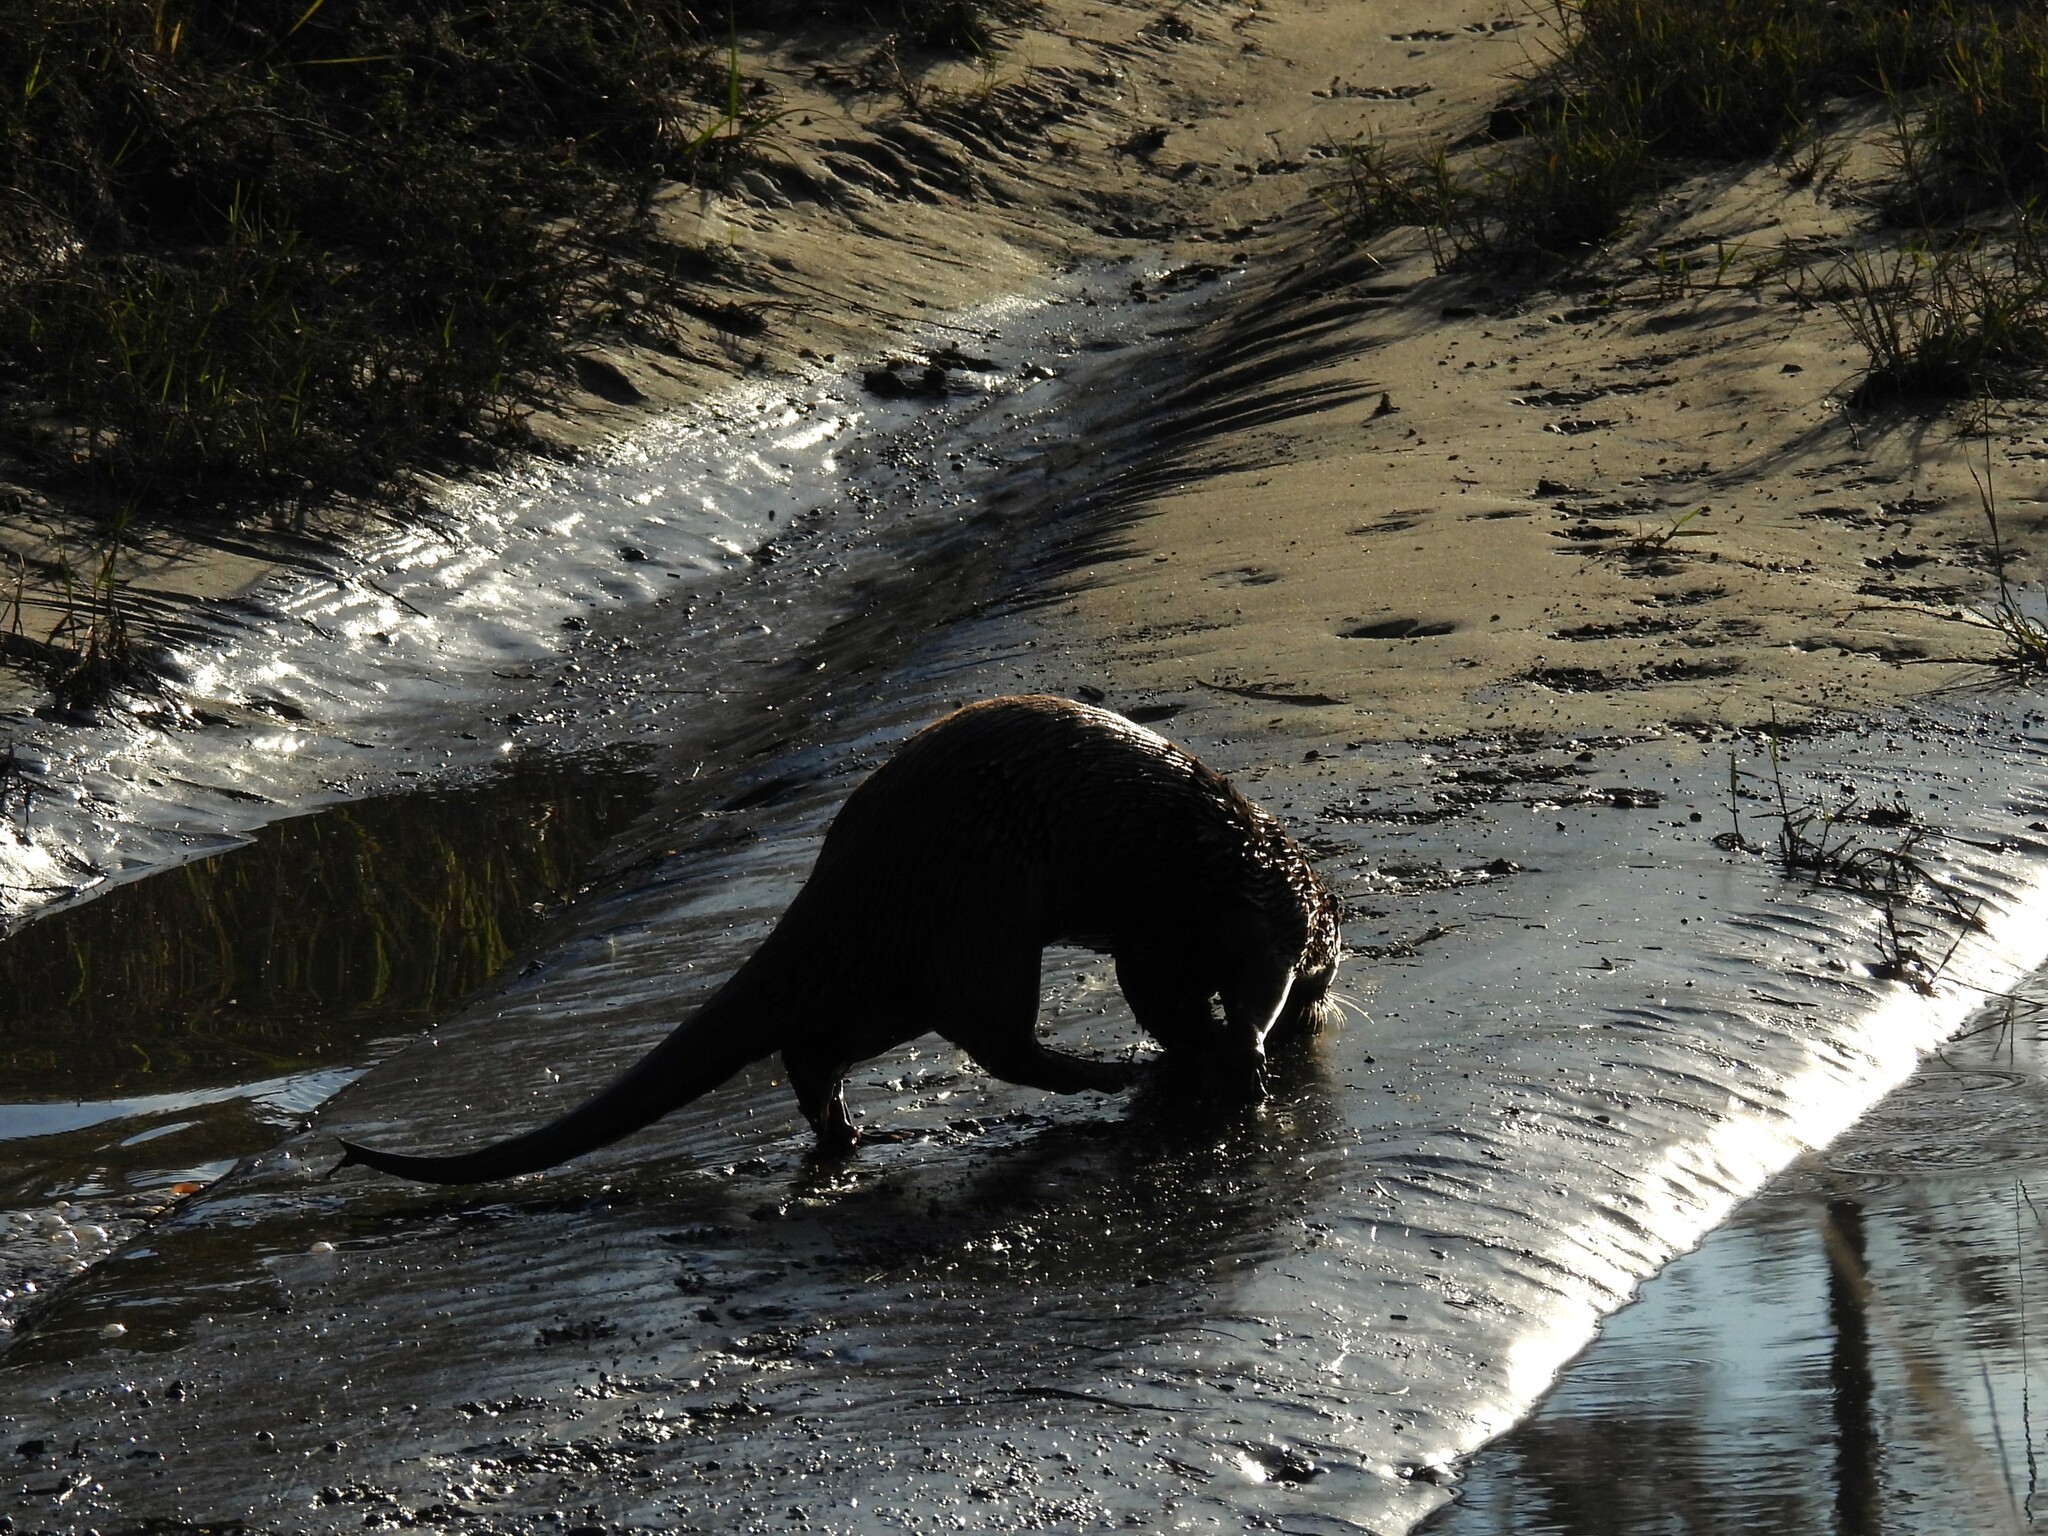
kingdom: Animalia
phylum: Chordata
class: Mammalia
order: Carnivora
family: Mustelidae
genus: Lontra
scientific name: Lontra canadensis
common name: North american river otter
